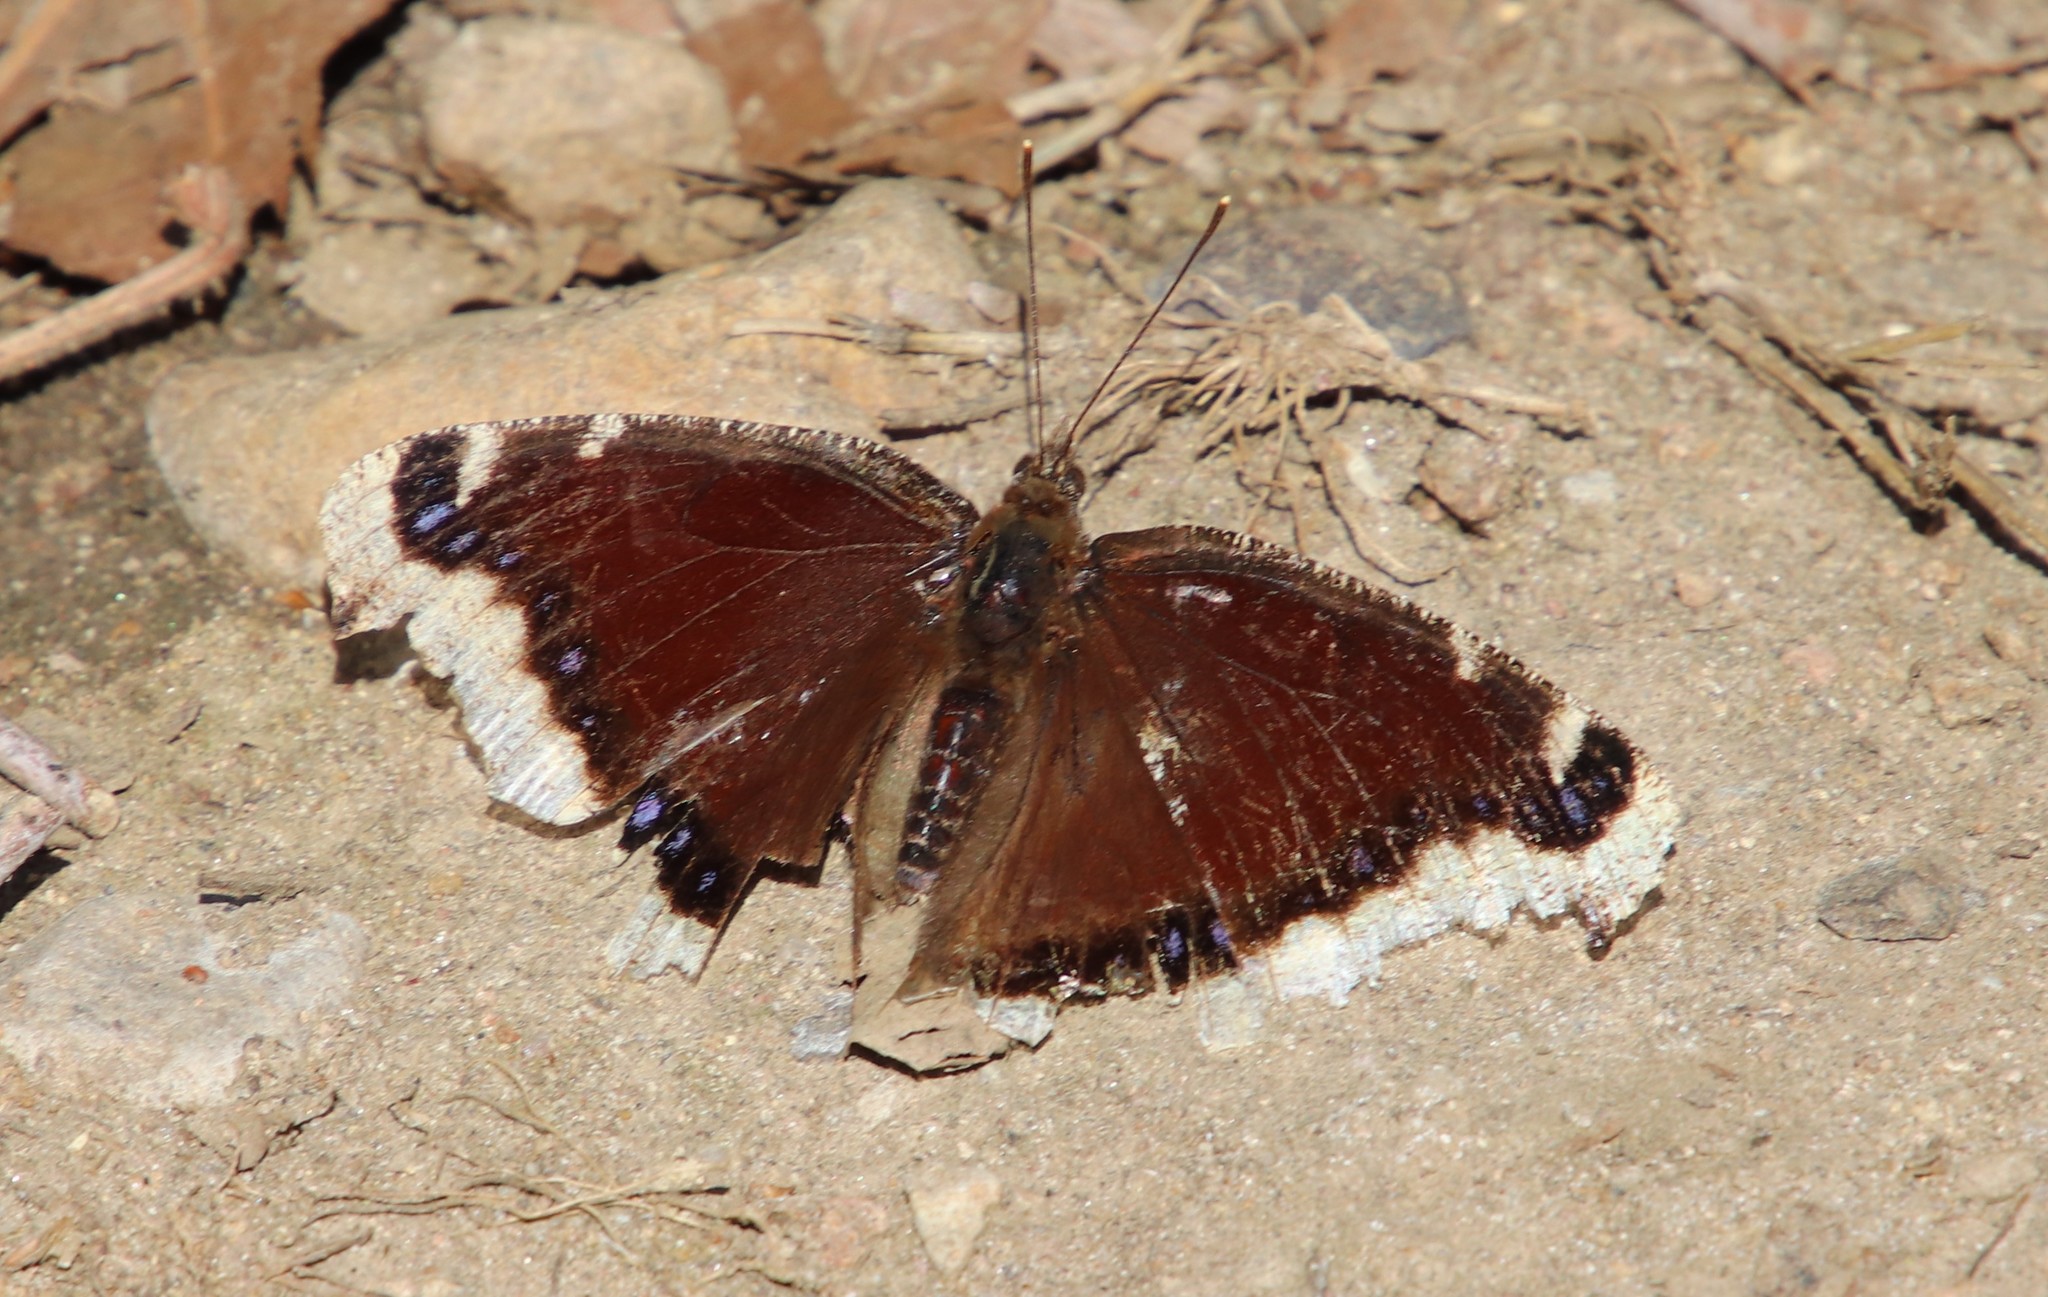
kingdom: Animalia
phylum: Arthropoda
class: Insecta
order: Lepidoptera
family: Nymphalidae
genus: Nymphalis
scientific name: Nymphalis antiopa
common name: Camberwell beauty
